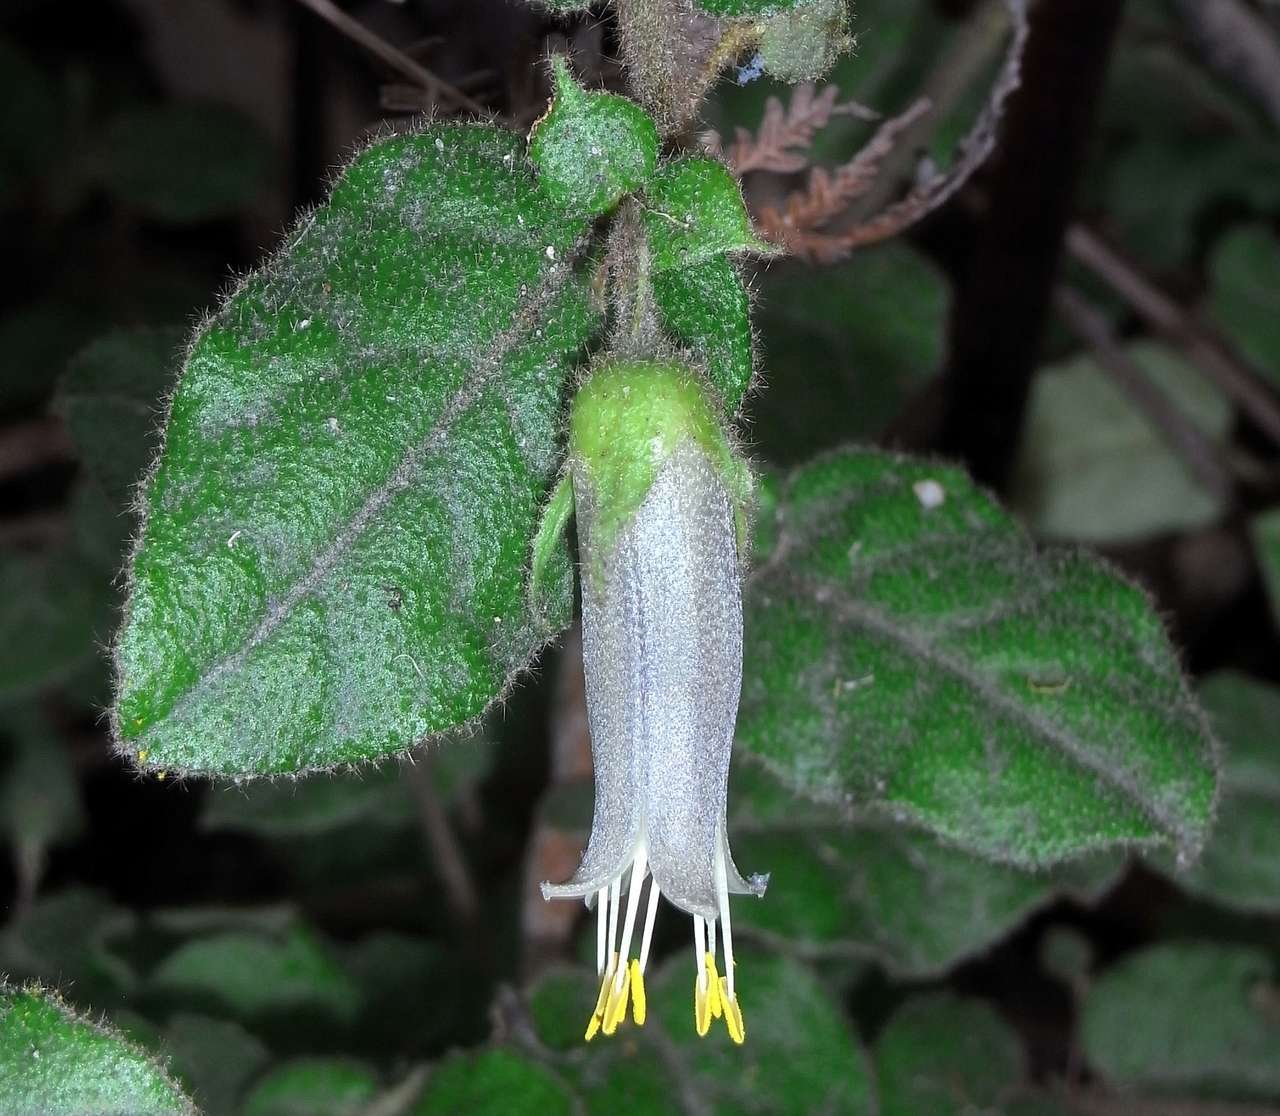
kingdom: Plantae
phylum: Tracheophyta
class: Magnoliopsida
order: Sapindales
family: Rutaceae
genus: Correa
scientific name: Correa aemula
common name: Hairy correa
